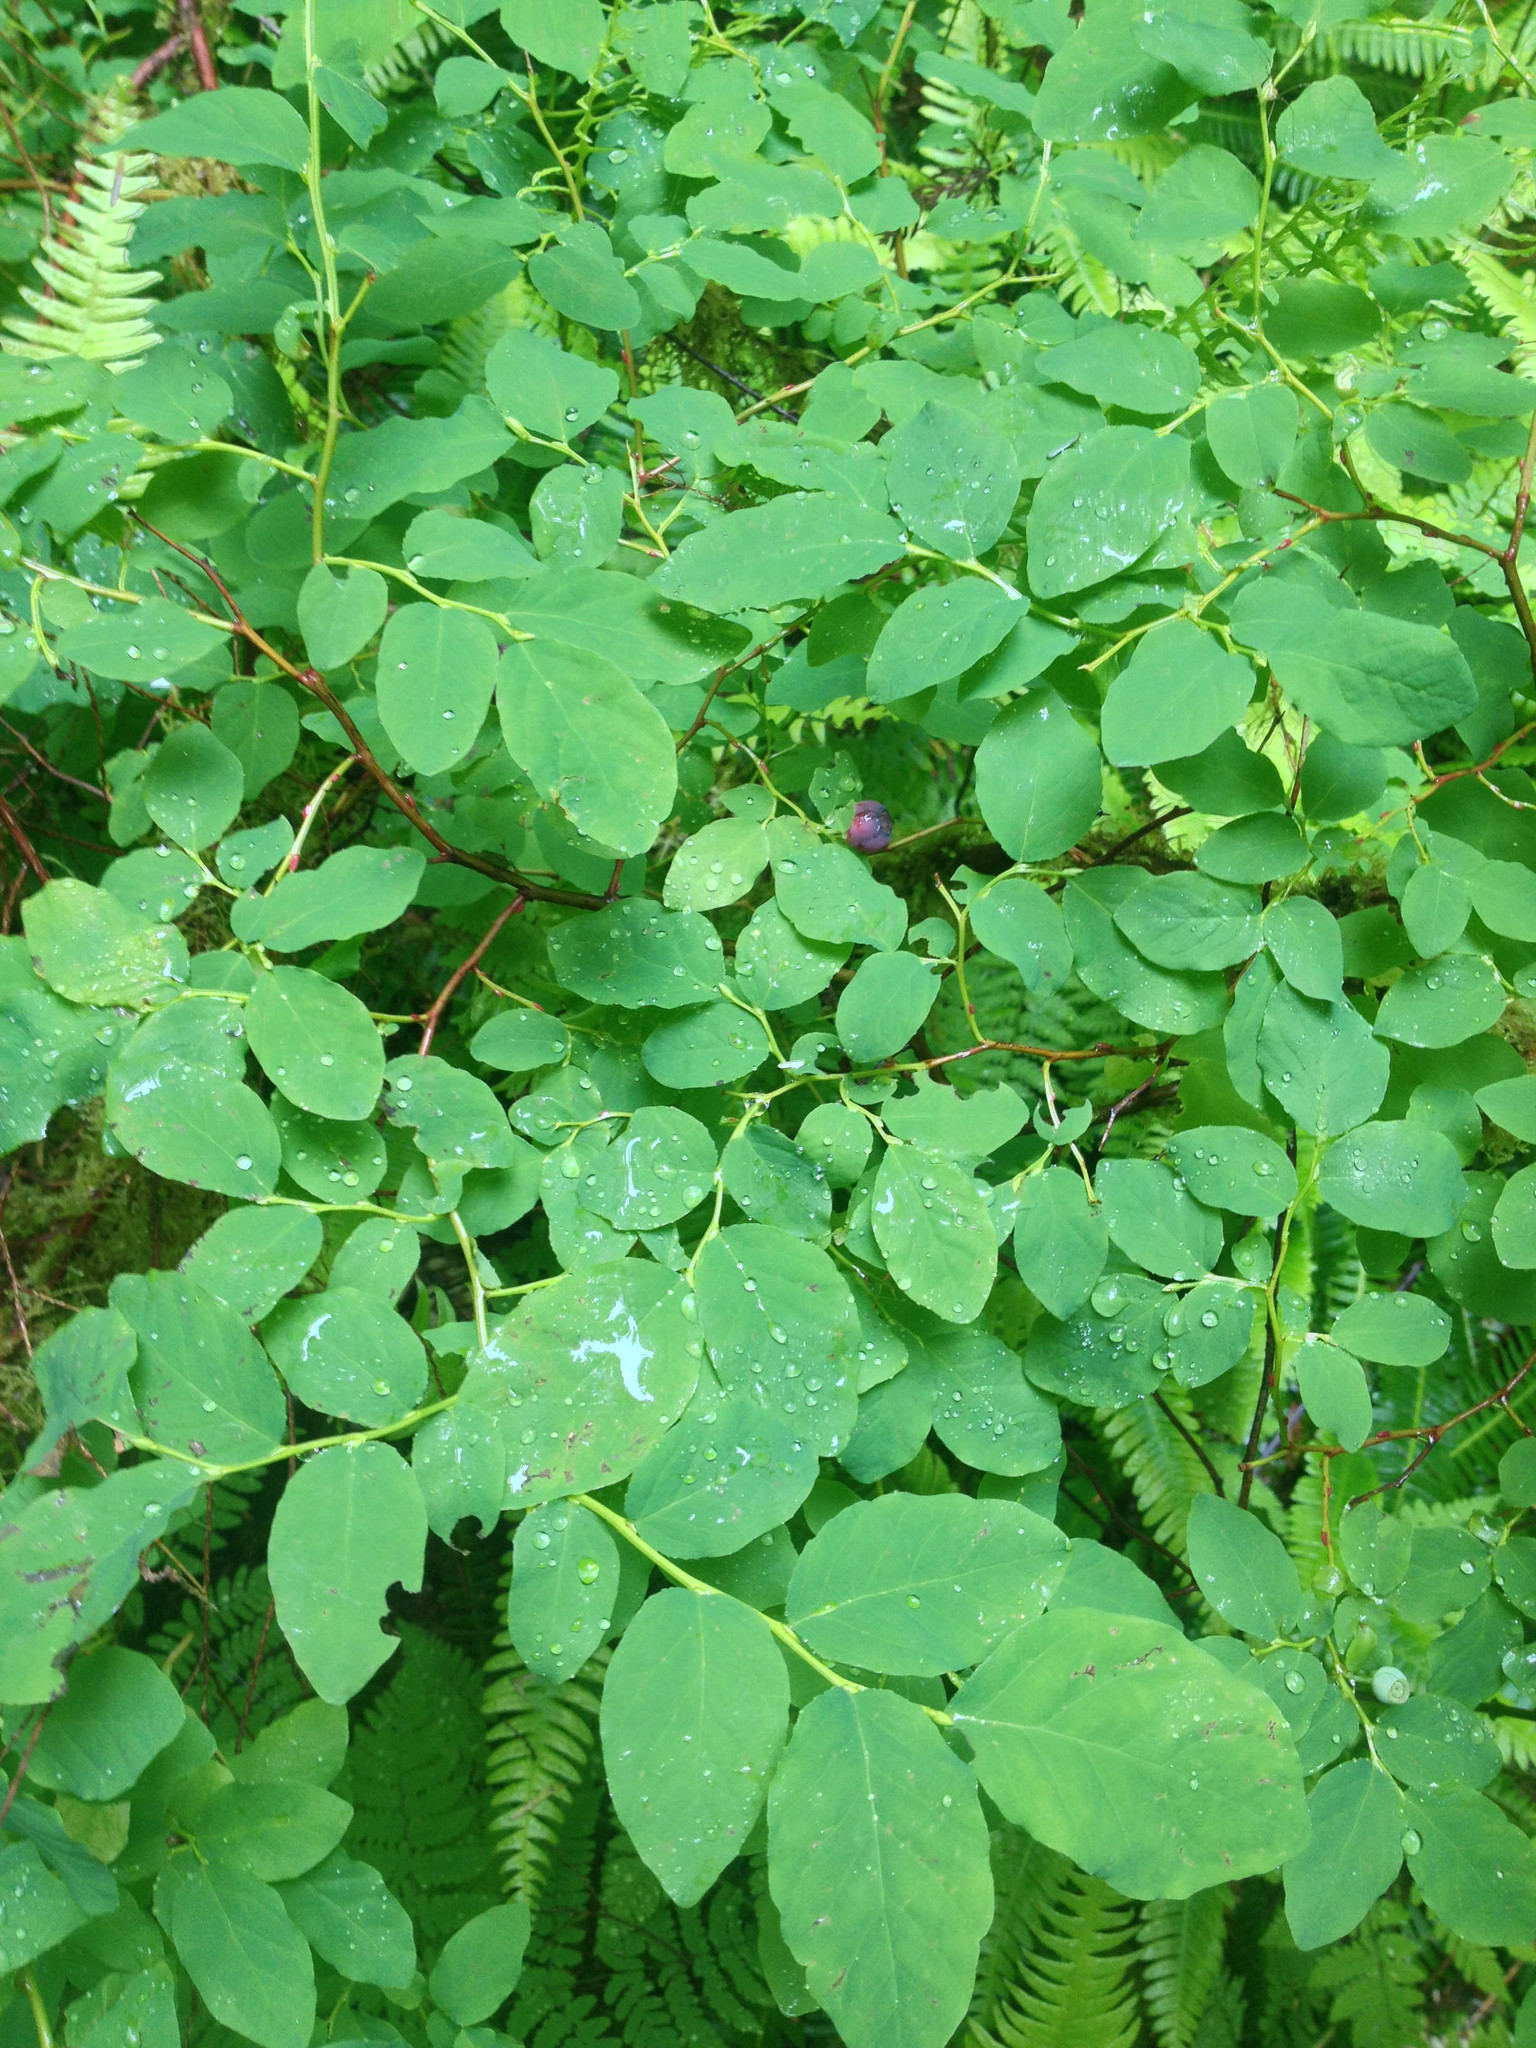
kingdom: Plantae
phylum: Tracheophyta
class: Magnoliopsida
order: Ericales
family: Ericaceae
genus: Vaccinium
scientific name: Vaccinium ovalifolium
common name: Early blueberry
